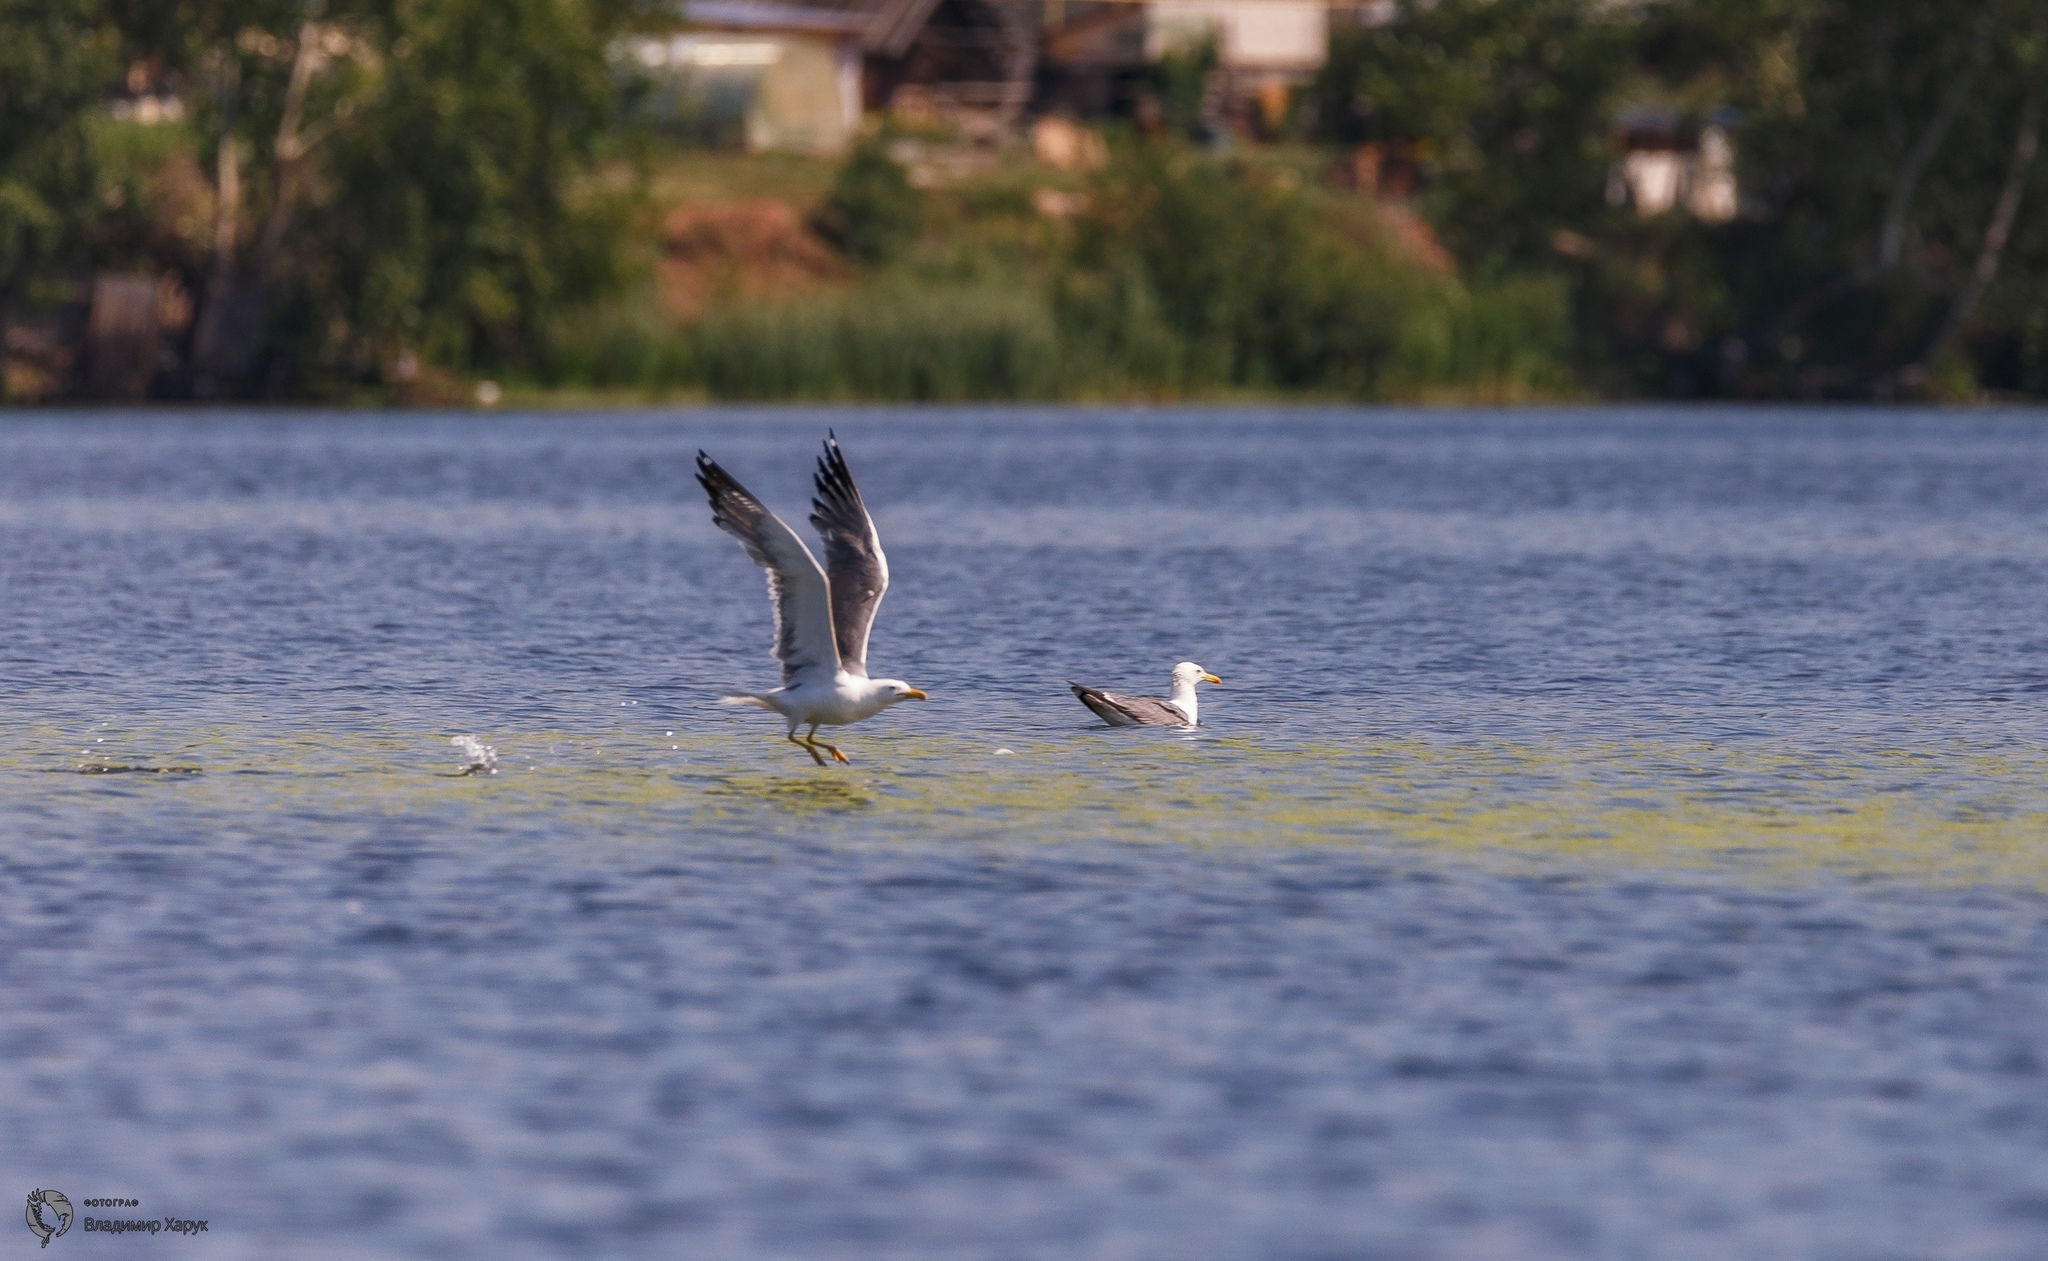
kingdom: Animalia
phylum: Chordata
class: Aves
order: Charadriiformes
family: Laridae
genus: Larus
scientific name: Larus fuscus
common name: Lesser black-backed gull
